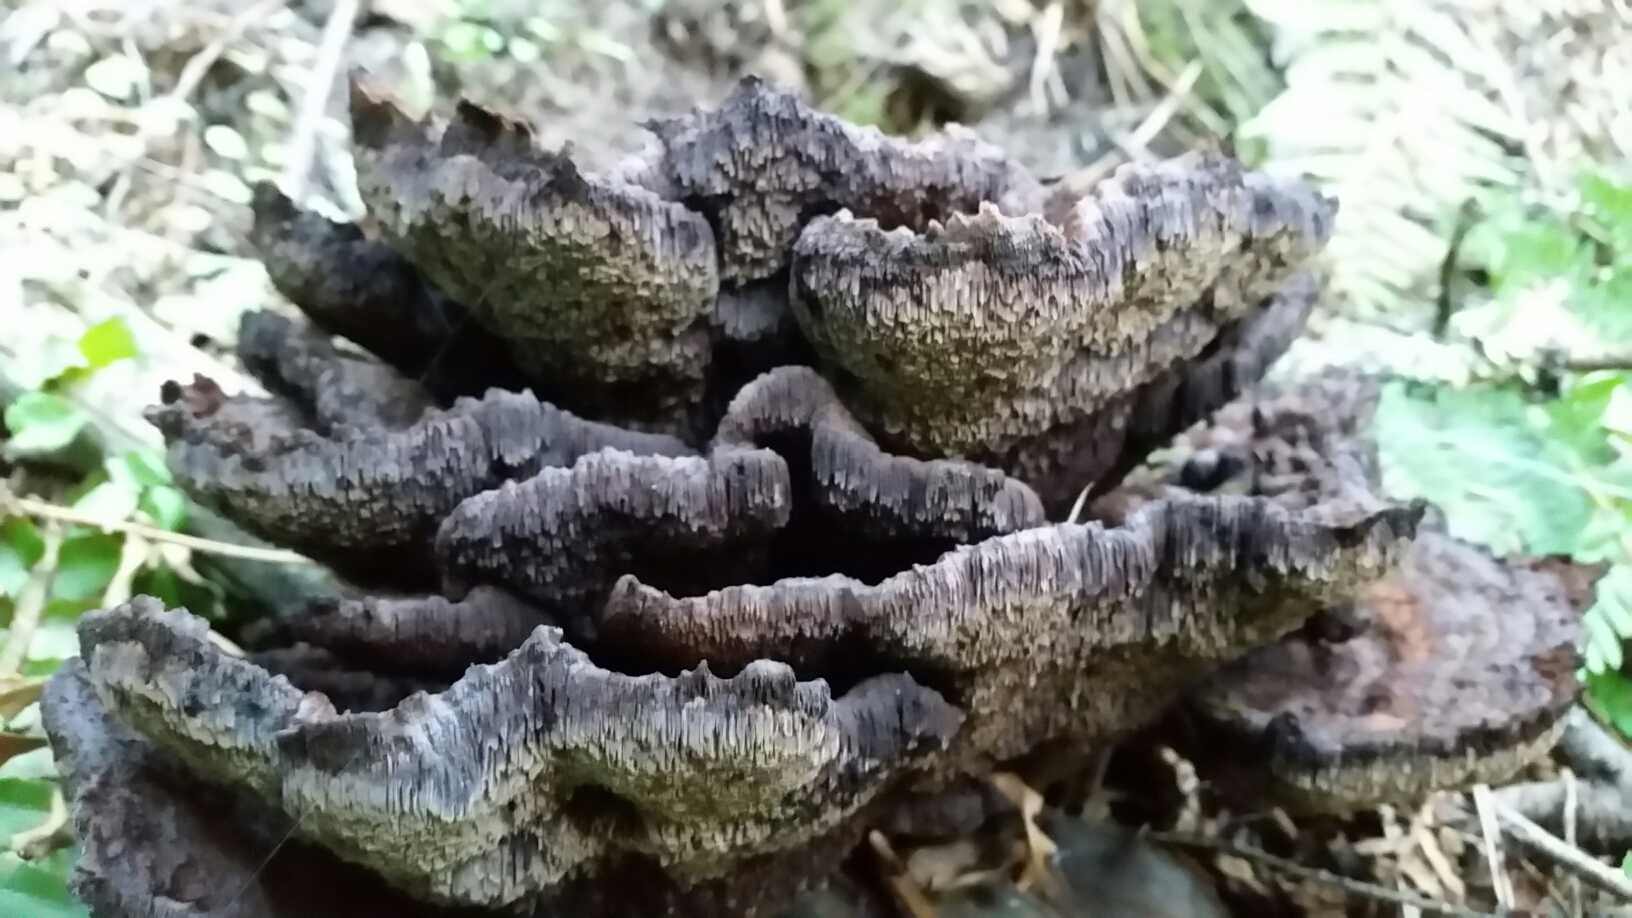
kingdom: Fungi
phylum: Basidiomycota
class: Agaricomycetes
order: Polyporales
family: Laetiporaceae
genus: Phaeolus
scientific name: Phaeolus schweinitzii
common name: Dyer's mazegill
